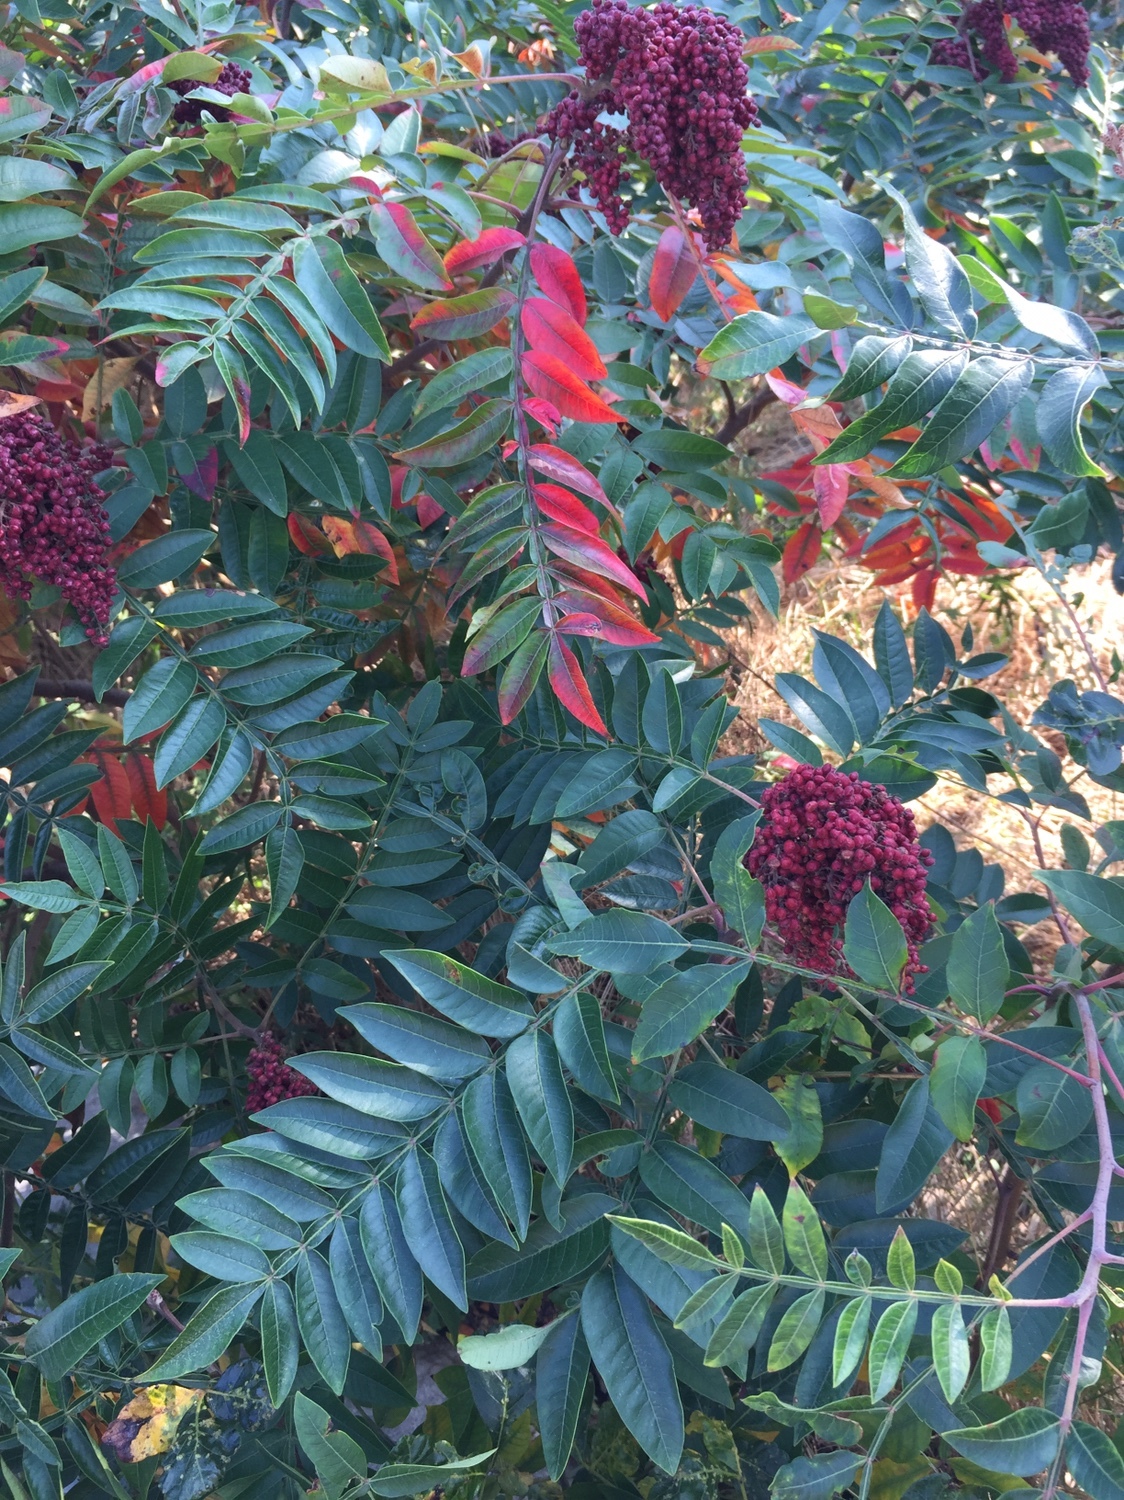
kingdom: Plantae
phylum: Tracheophyta
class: Magnoliopsida
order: Sapindales
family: Anacardiaceae
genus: Rhus
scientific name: Rhus copallina
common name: Shining sumac
